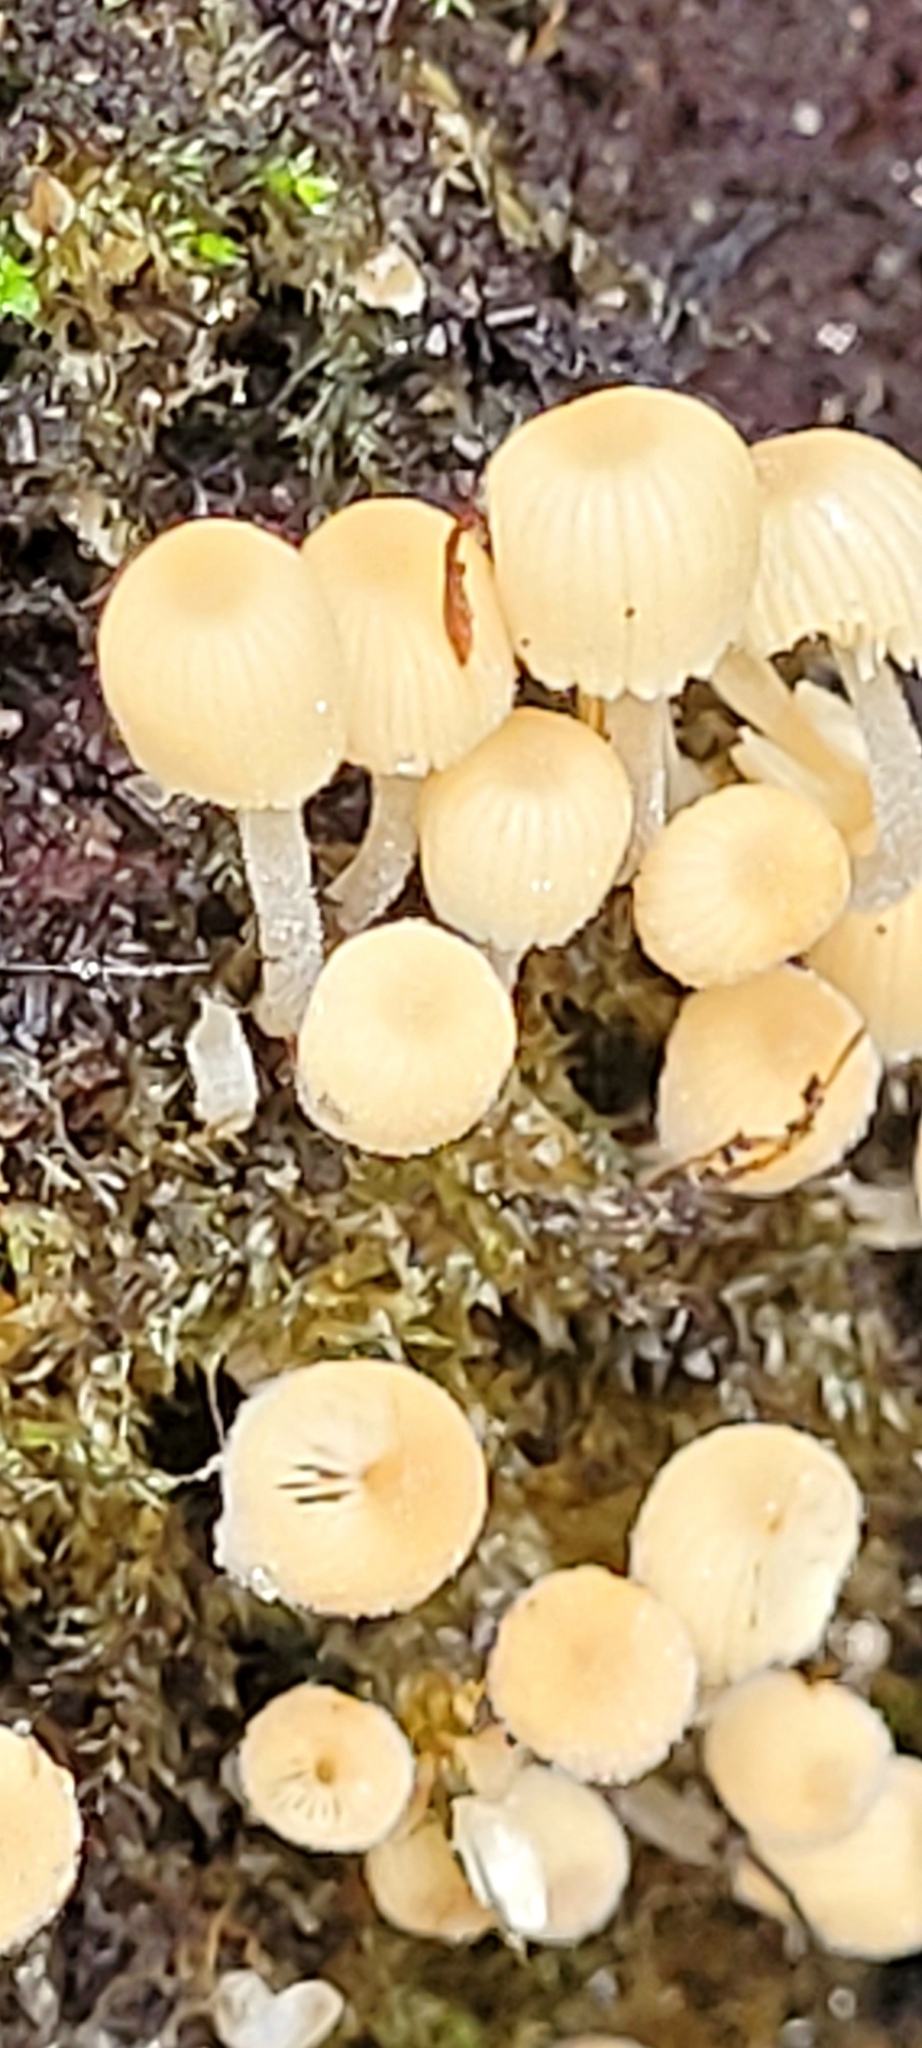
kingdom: Fungi
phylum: Basidiomycota
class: Agaricomycetes
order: Agaricales
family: Psathyrellaceae
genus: Coprinellus
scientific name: Coprinellus disseminatus
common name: Fairies' bonnets
